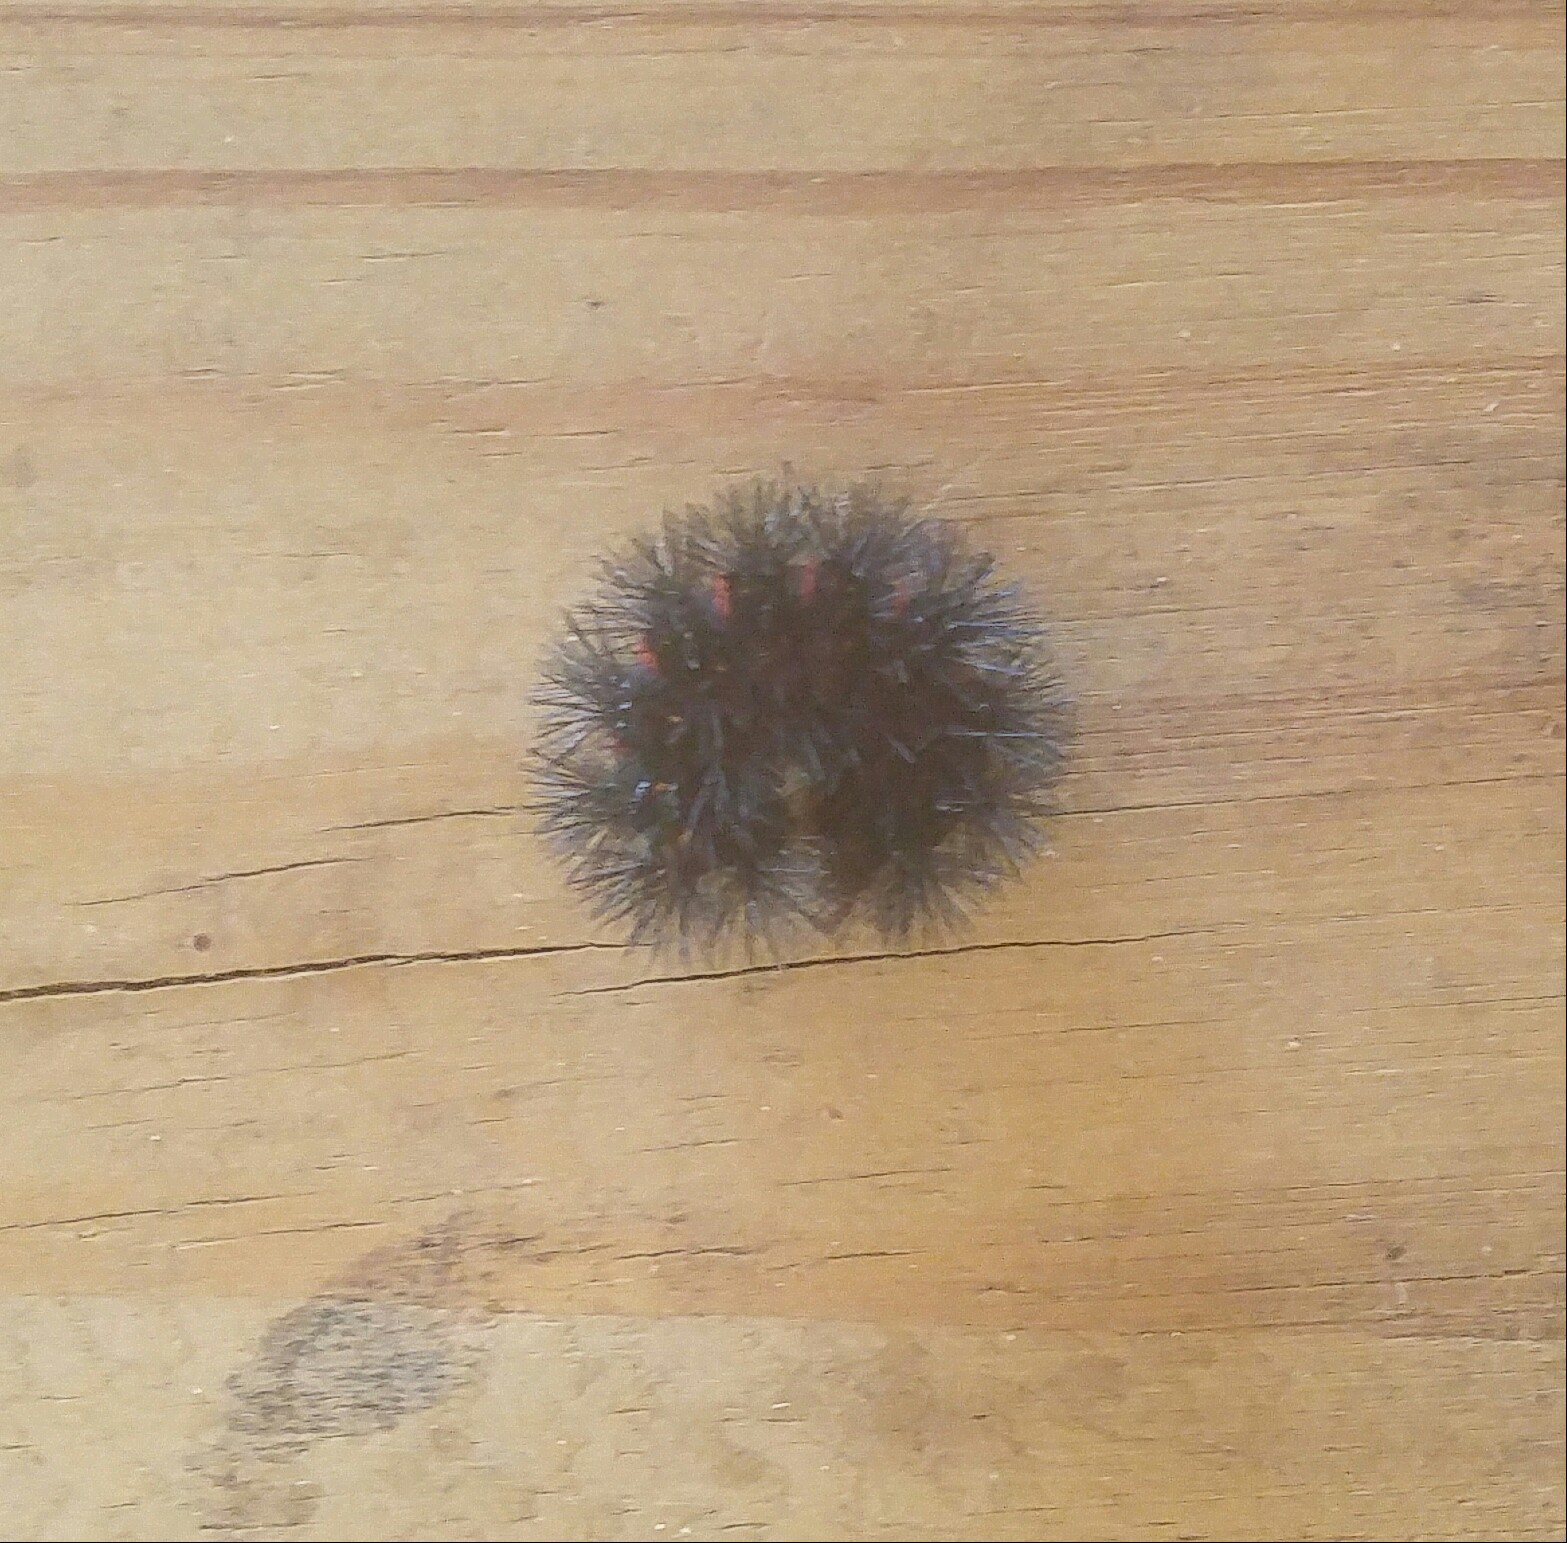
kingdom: Animalia
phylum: Arthropoda
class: Insecta
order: Lepidoptera
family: Erebidae
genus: Hypercompe
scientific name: Hypercompe scribonia
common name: Giant leopard moth
